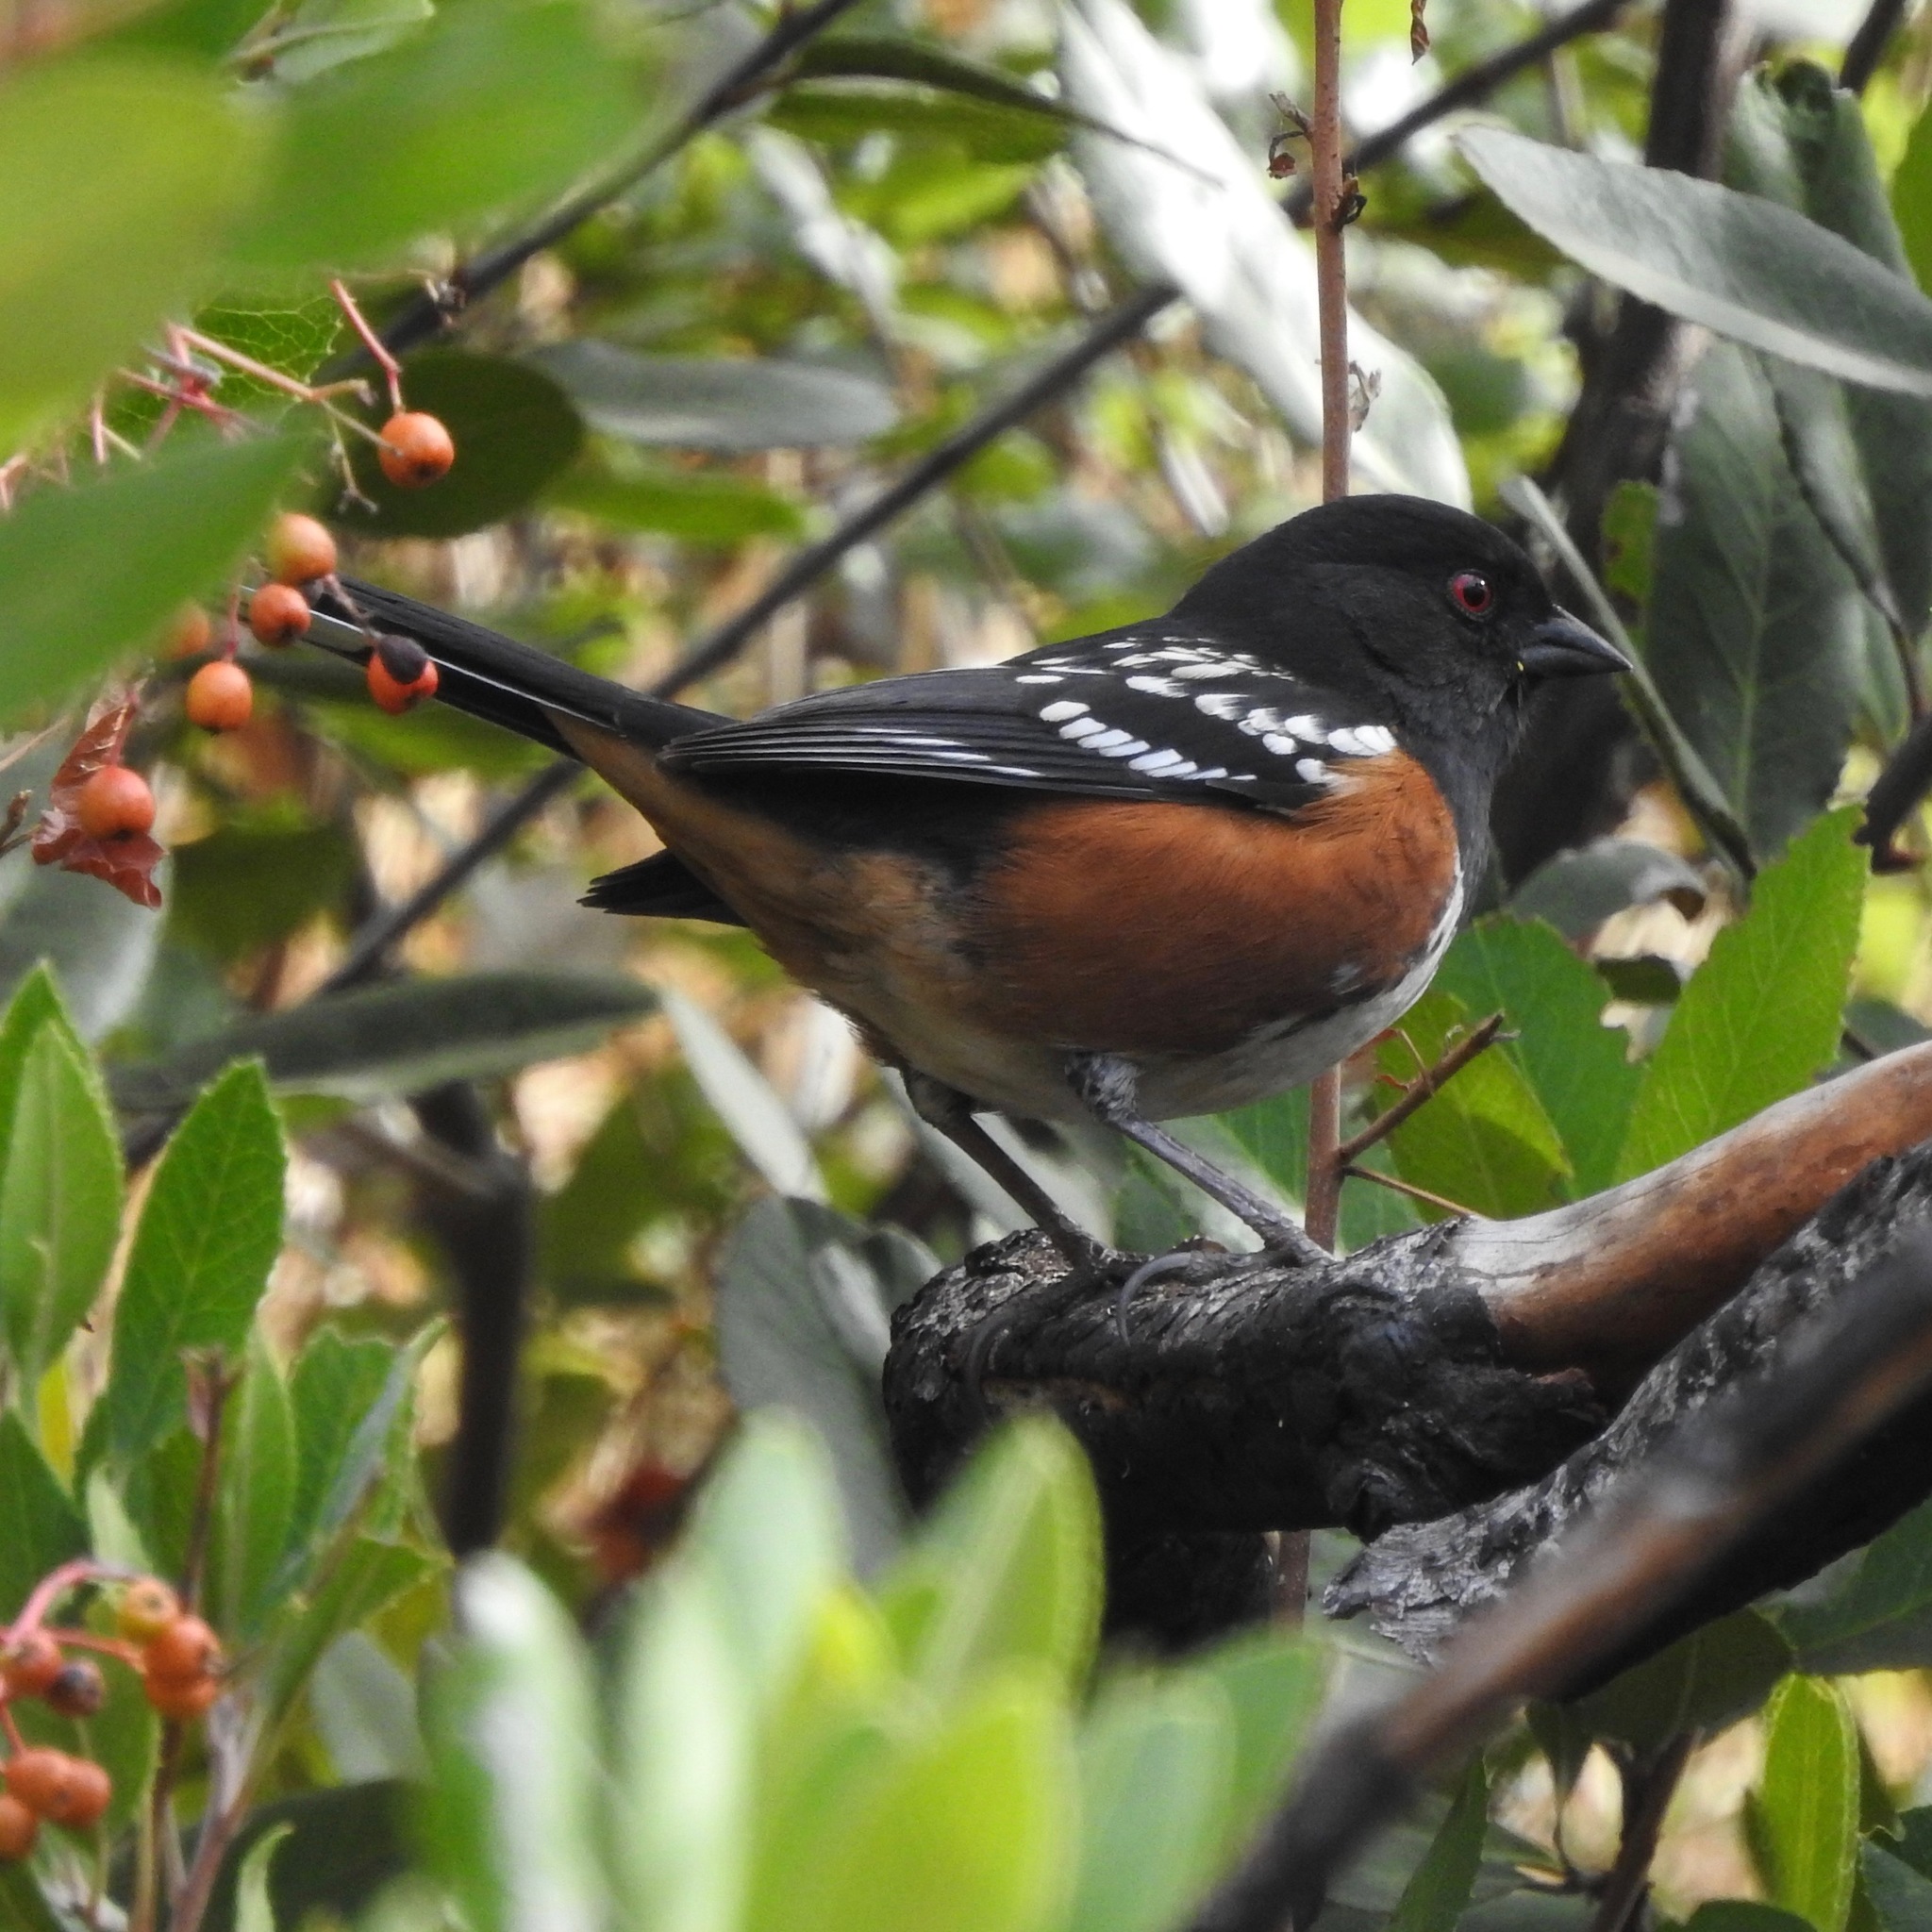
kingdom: Animalia
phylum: Chordata
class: Aves
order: Passeriformes
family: Passerellidae
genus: Pipilo
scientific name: Pipilo maculatus
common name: Spotted towhee
